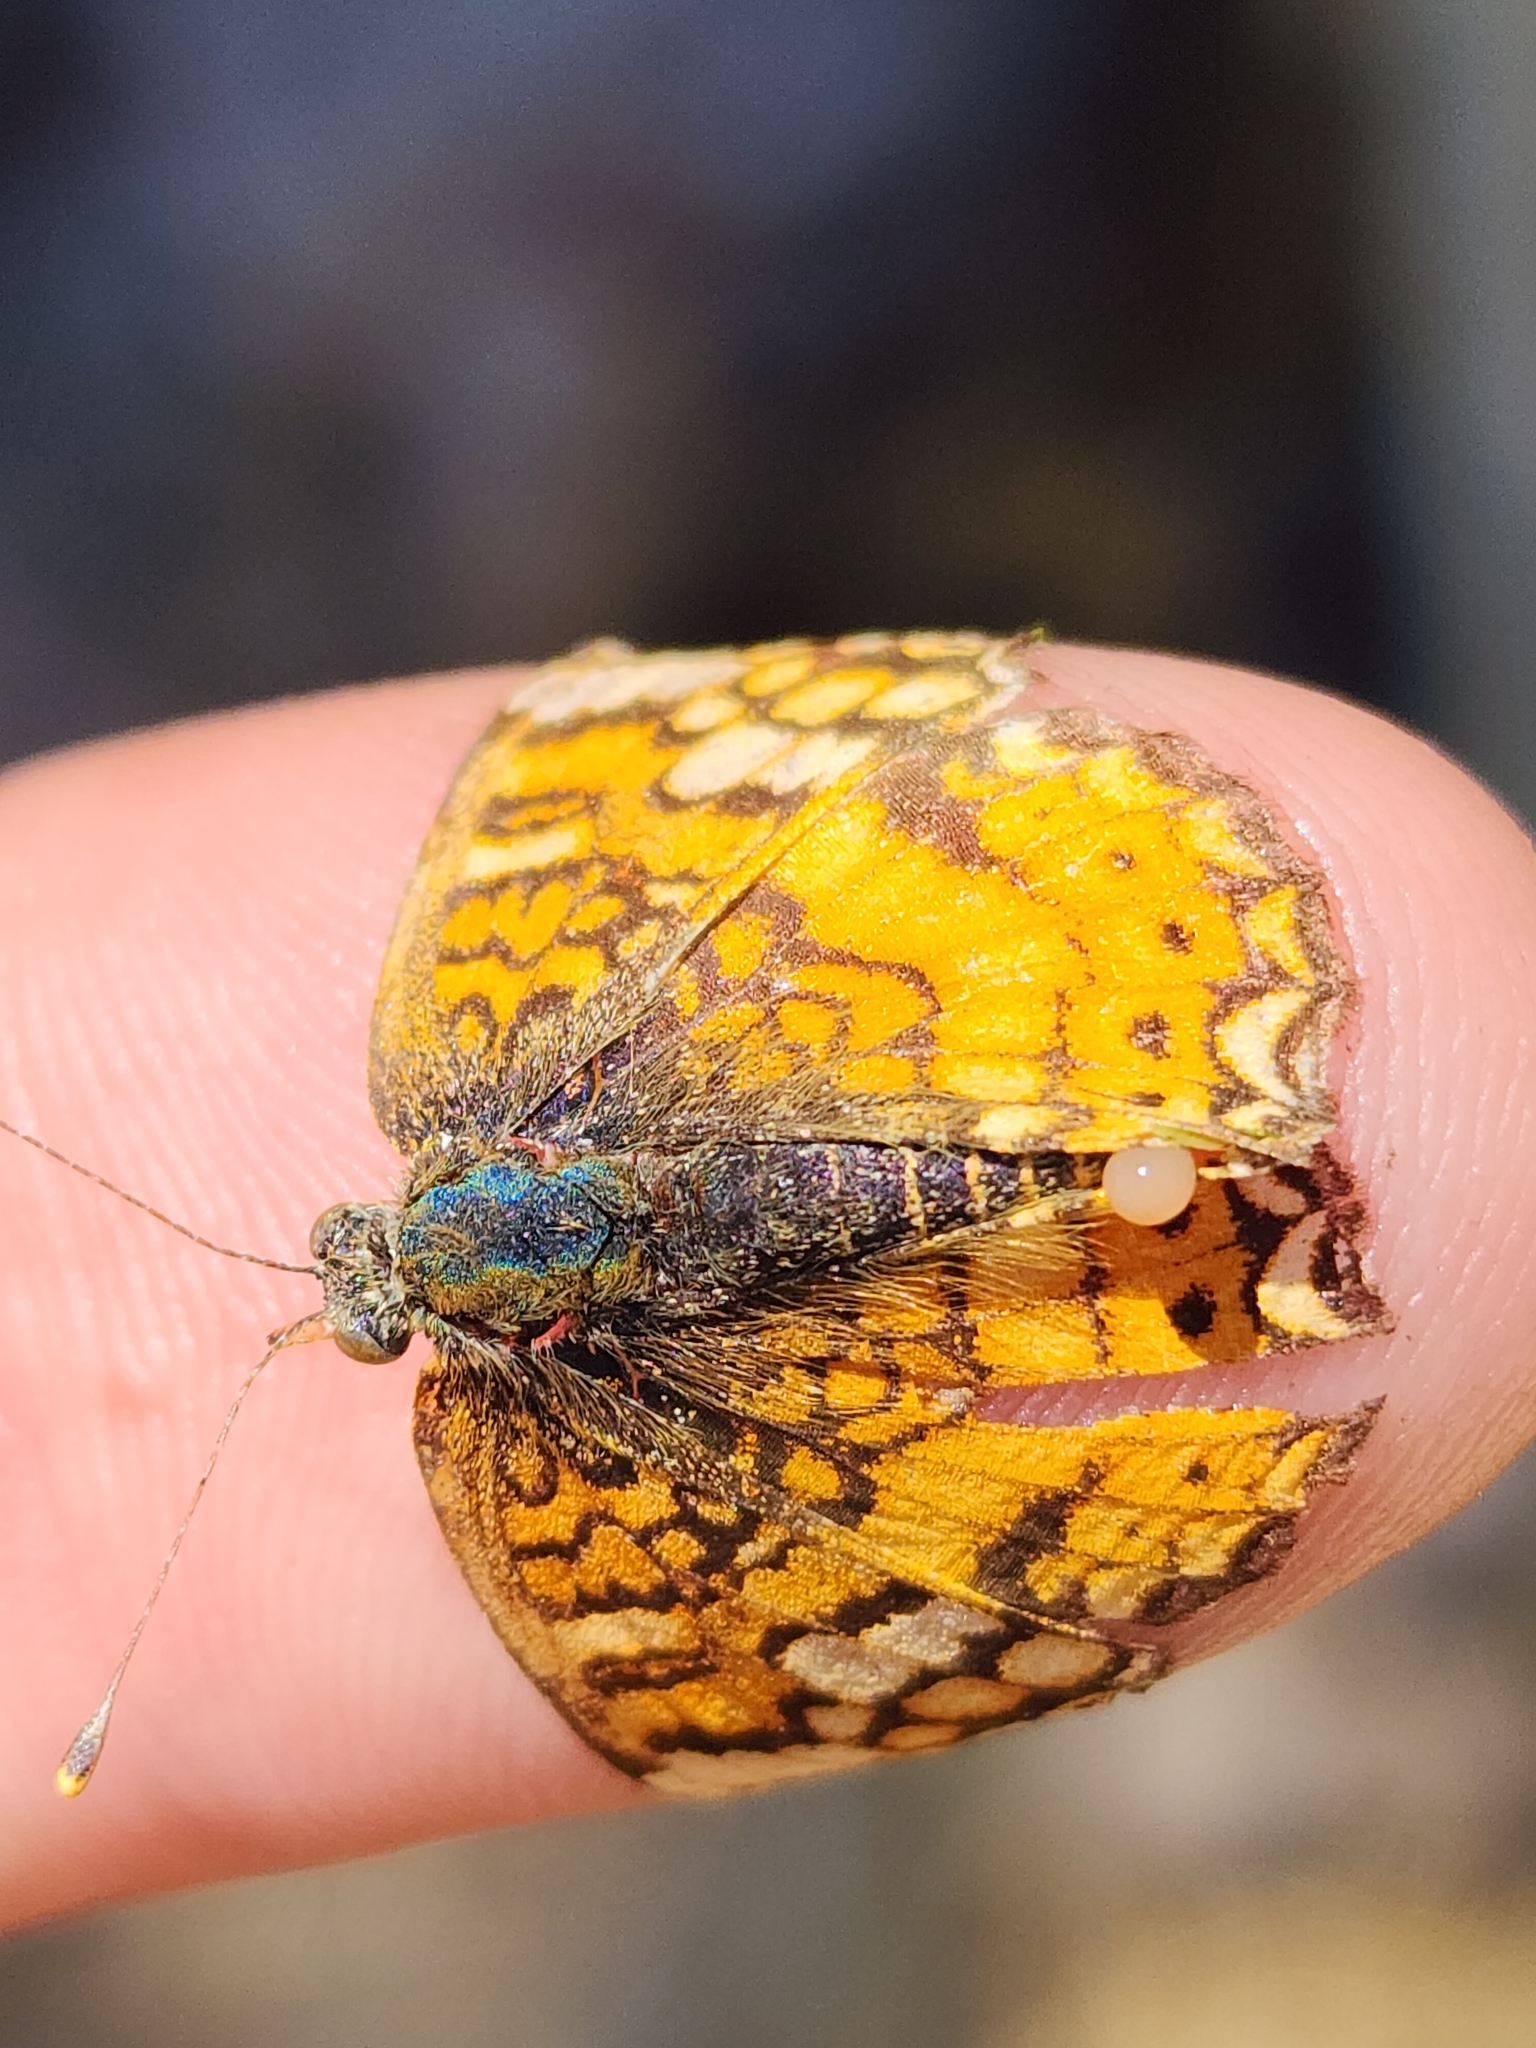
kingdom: Animalia
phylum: Arthropoda
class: Insecta
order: Lepidoptera
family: Nymphalidae
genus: Eresia
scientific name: Eresia aveyrona
